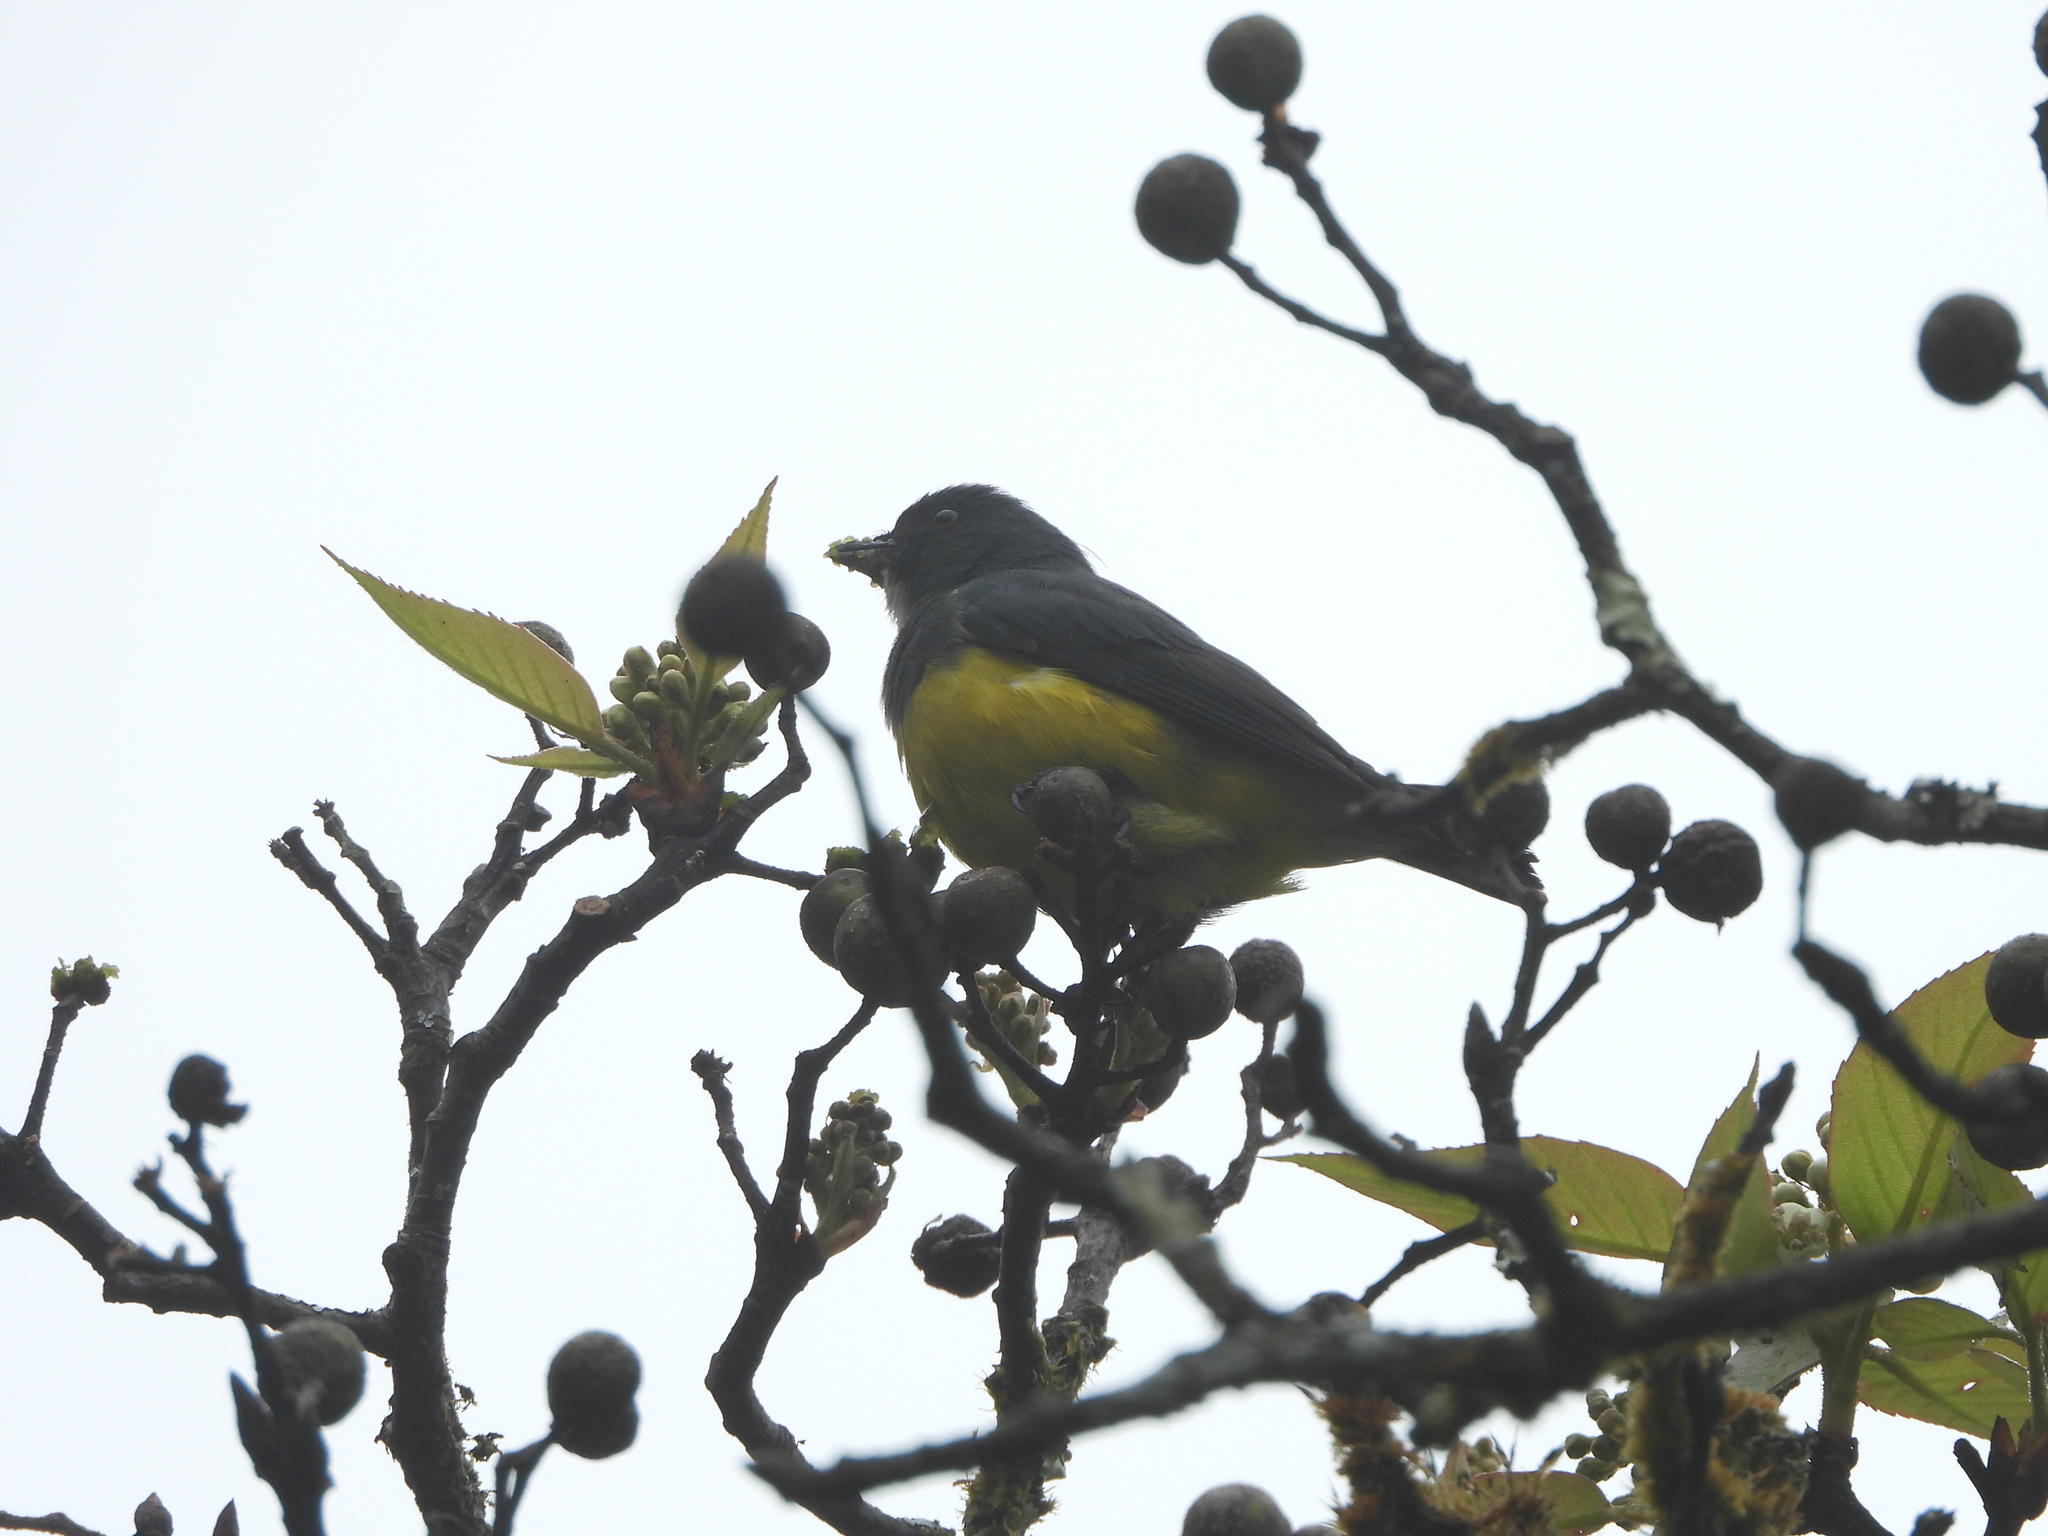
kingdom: Animalia
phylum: Chordata
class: Aves
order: Passeriformes
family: Dicaeidae
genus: Dicaeum
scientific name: Dicaeum melanozanthum
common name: Yellow-bellied flowerpecker
